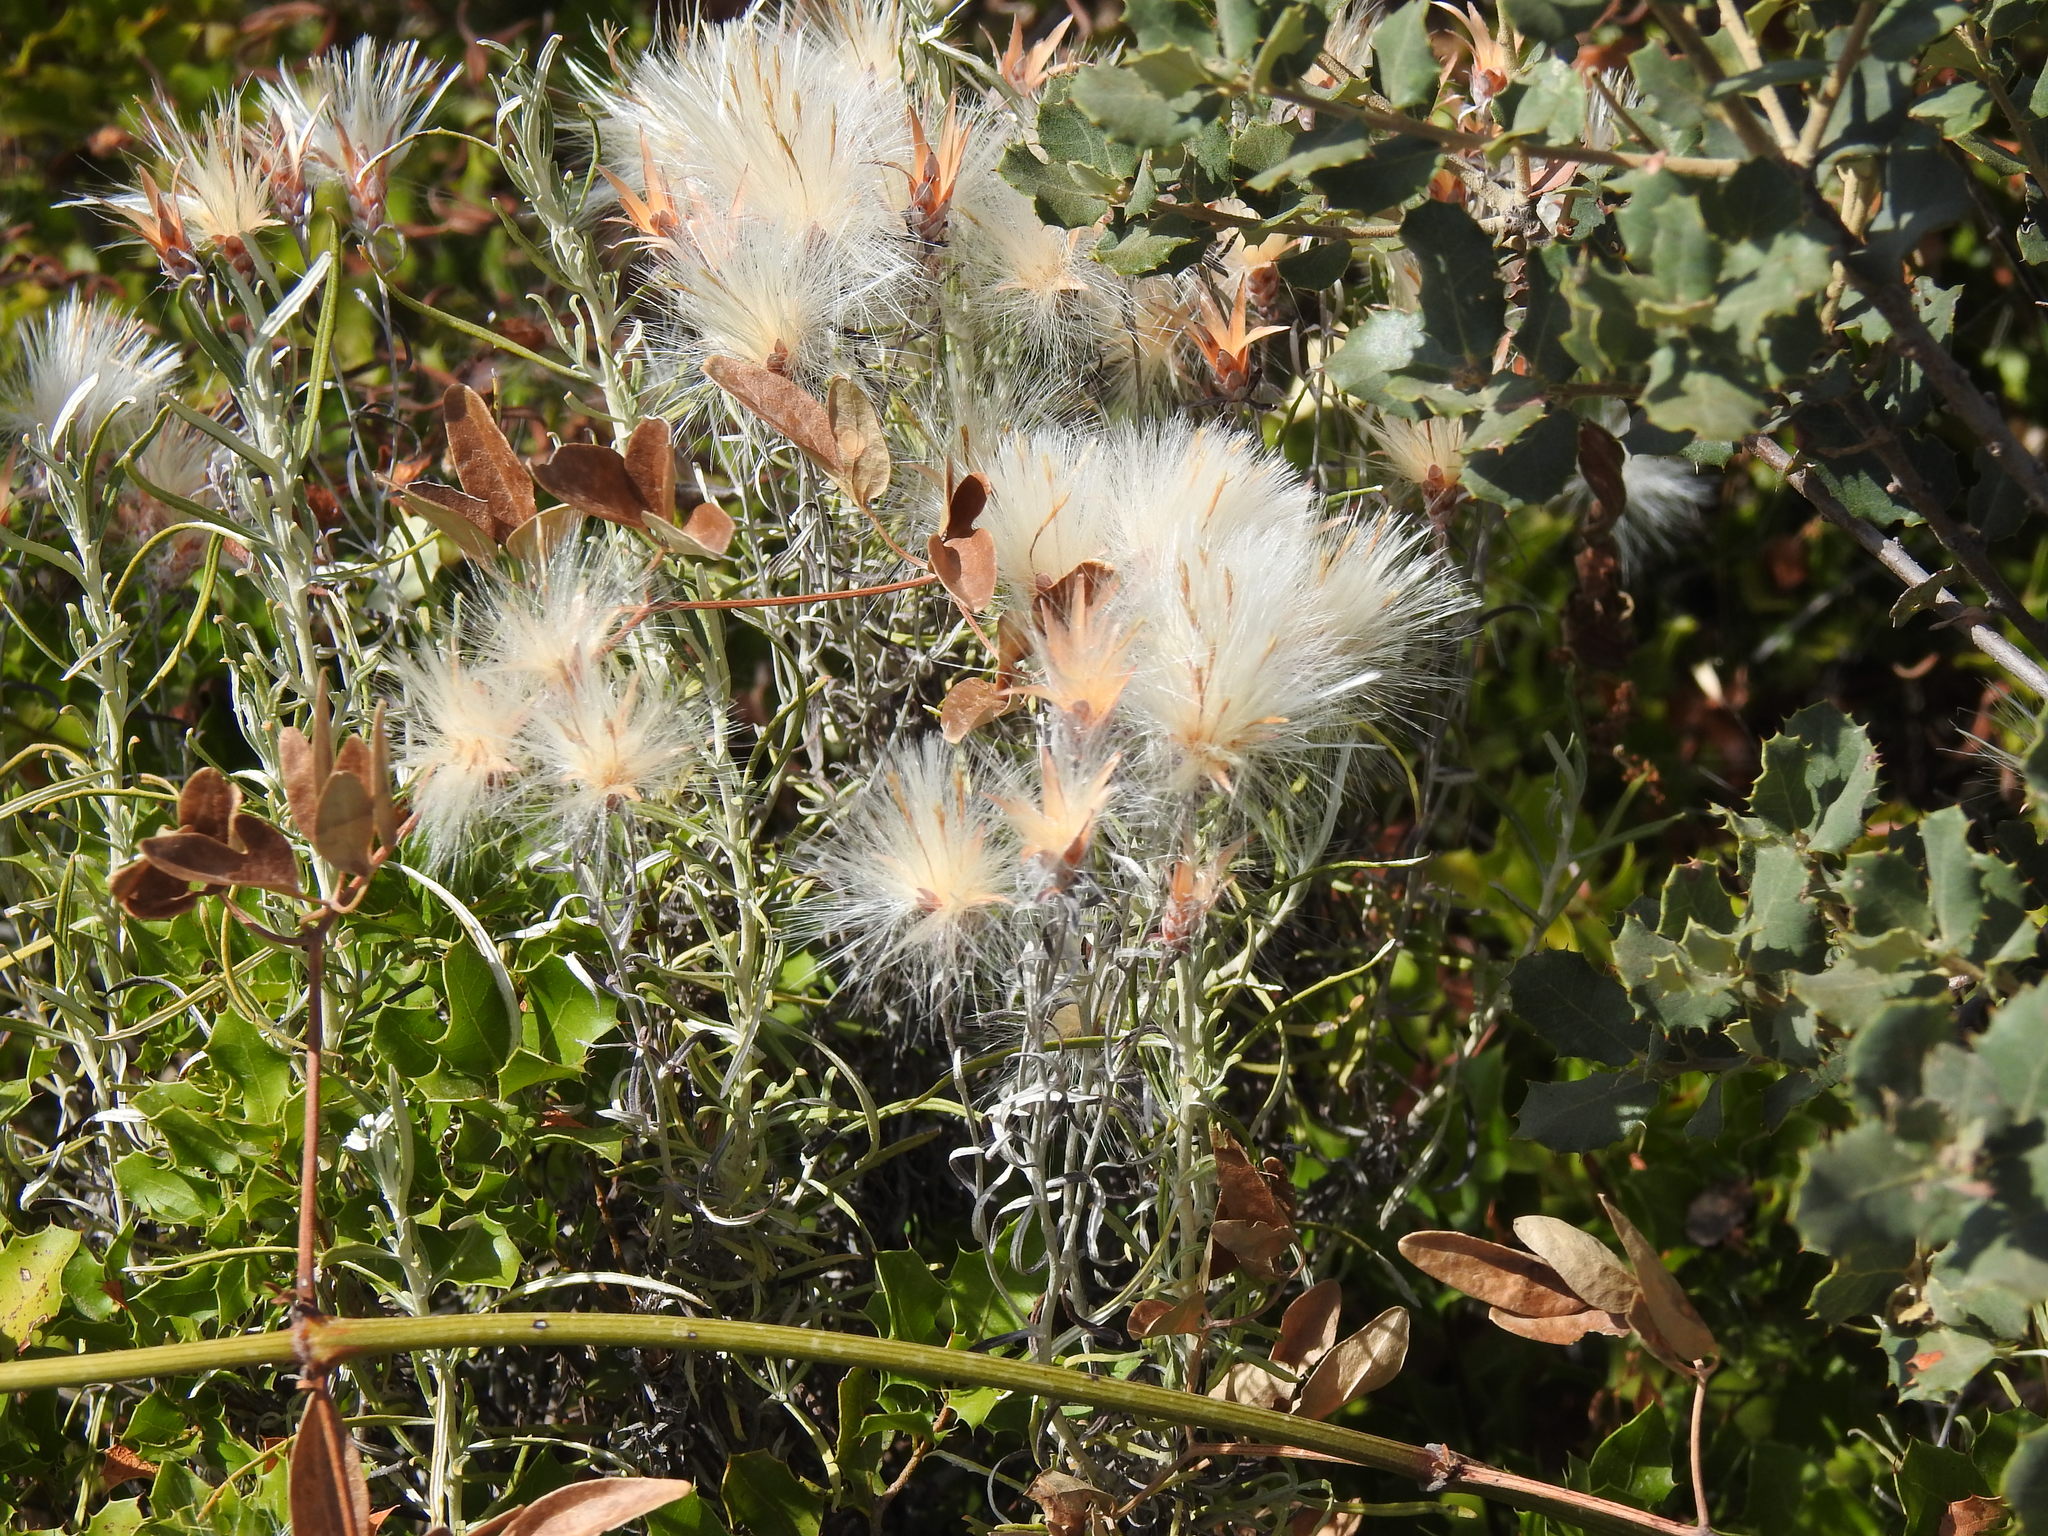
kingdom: Plantae
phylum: Tracheophyta
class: Magnoliopsida
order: Asterales
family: Asteraceae
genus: Staehelina
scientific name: Staehelina dubia
